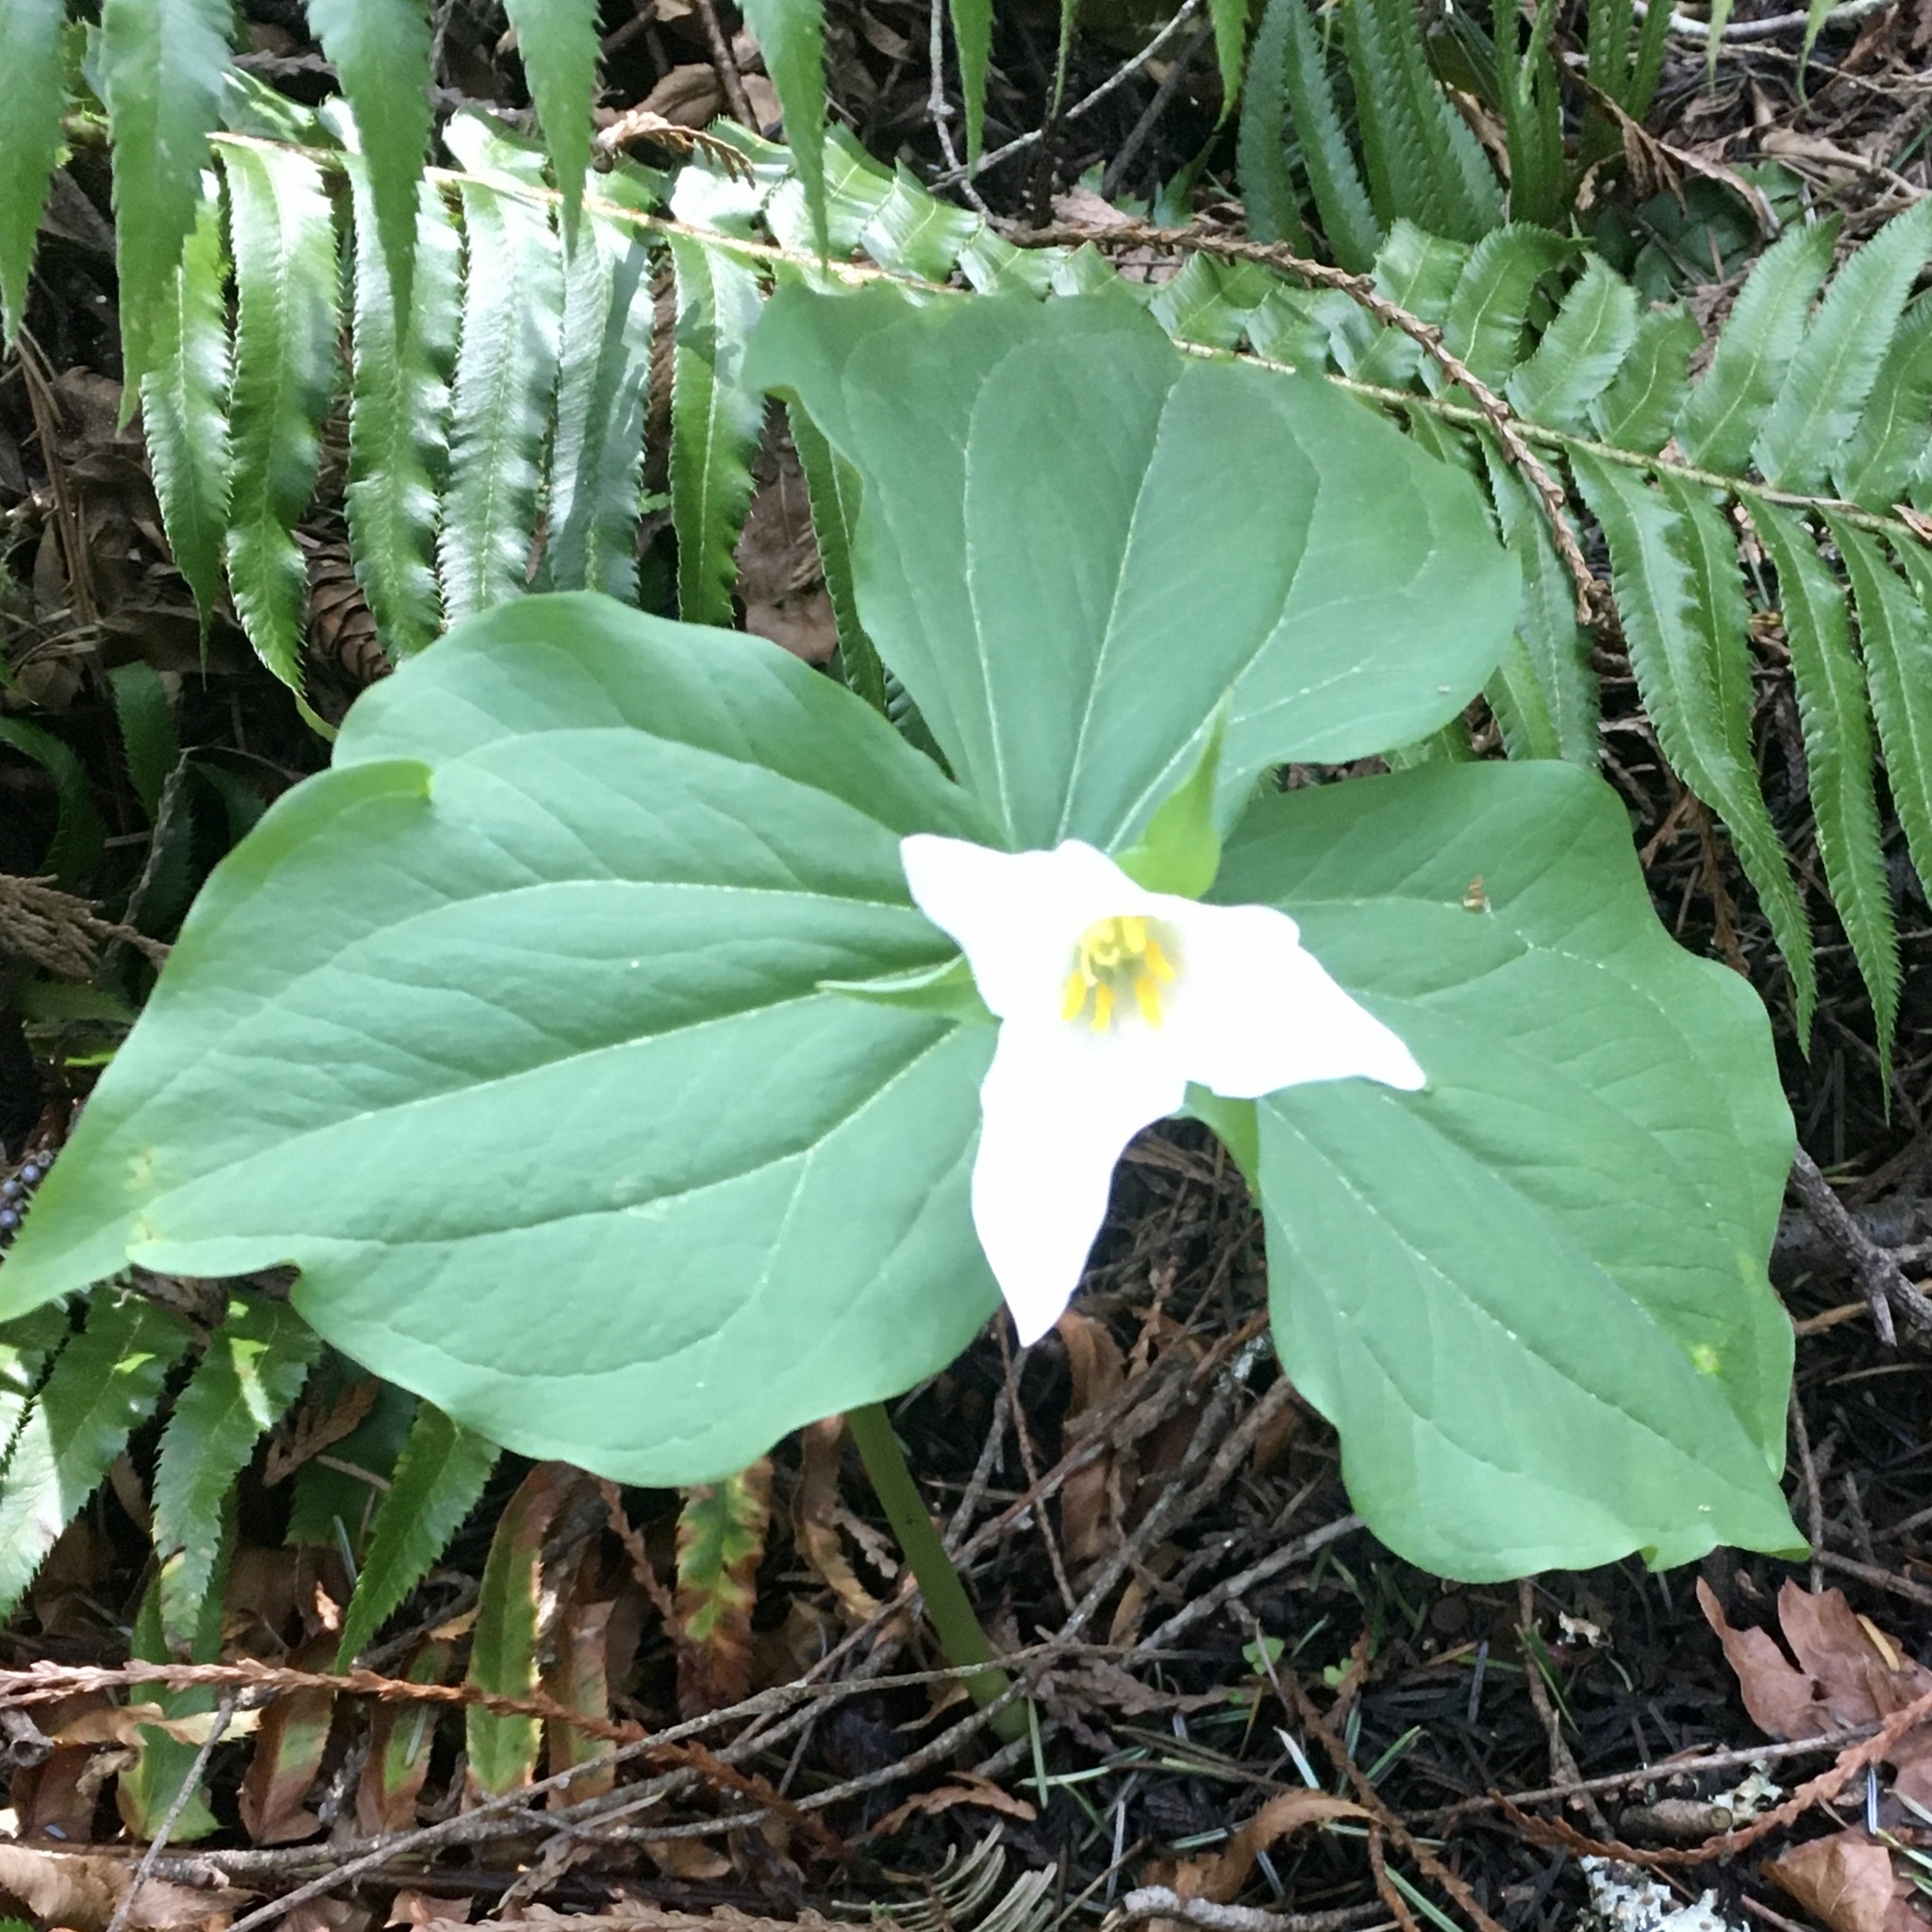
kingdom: Plantae
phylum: Tracheophyta
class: Liliopsida
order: Liliales
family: Melanthiaceae
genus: Trillium
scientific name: Trillium ovatum
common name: Pacific trillium
